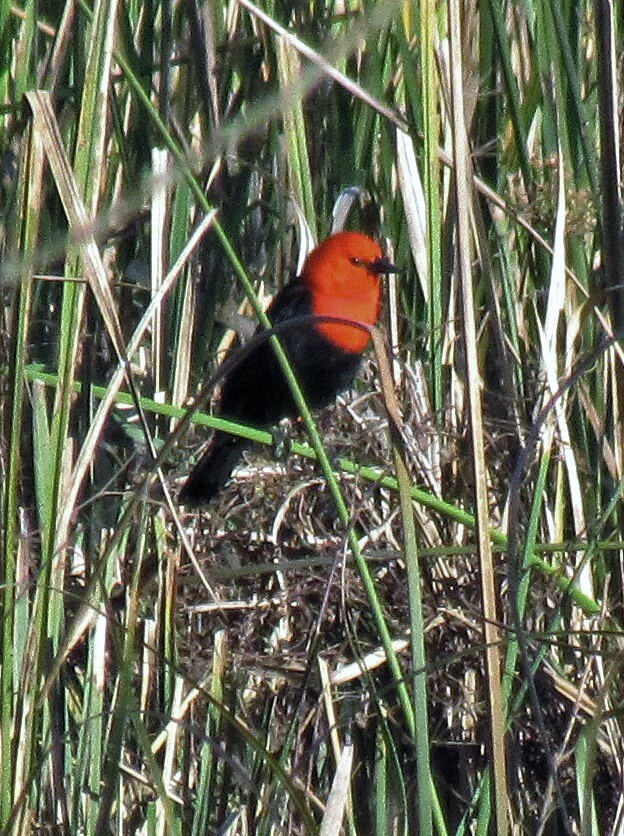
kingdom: Animalia
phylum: Chordata
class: Aves
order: Passeriformes
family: Icteridae
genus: Amblyramphus
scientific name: Amblyramphus holosericeus
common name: Scarlet-headed blackbird
